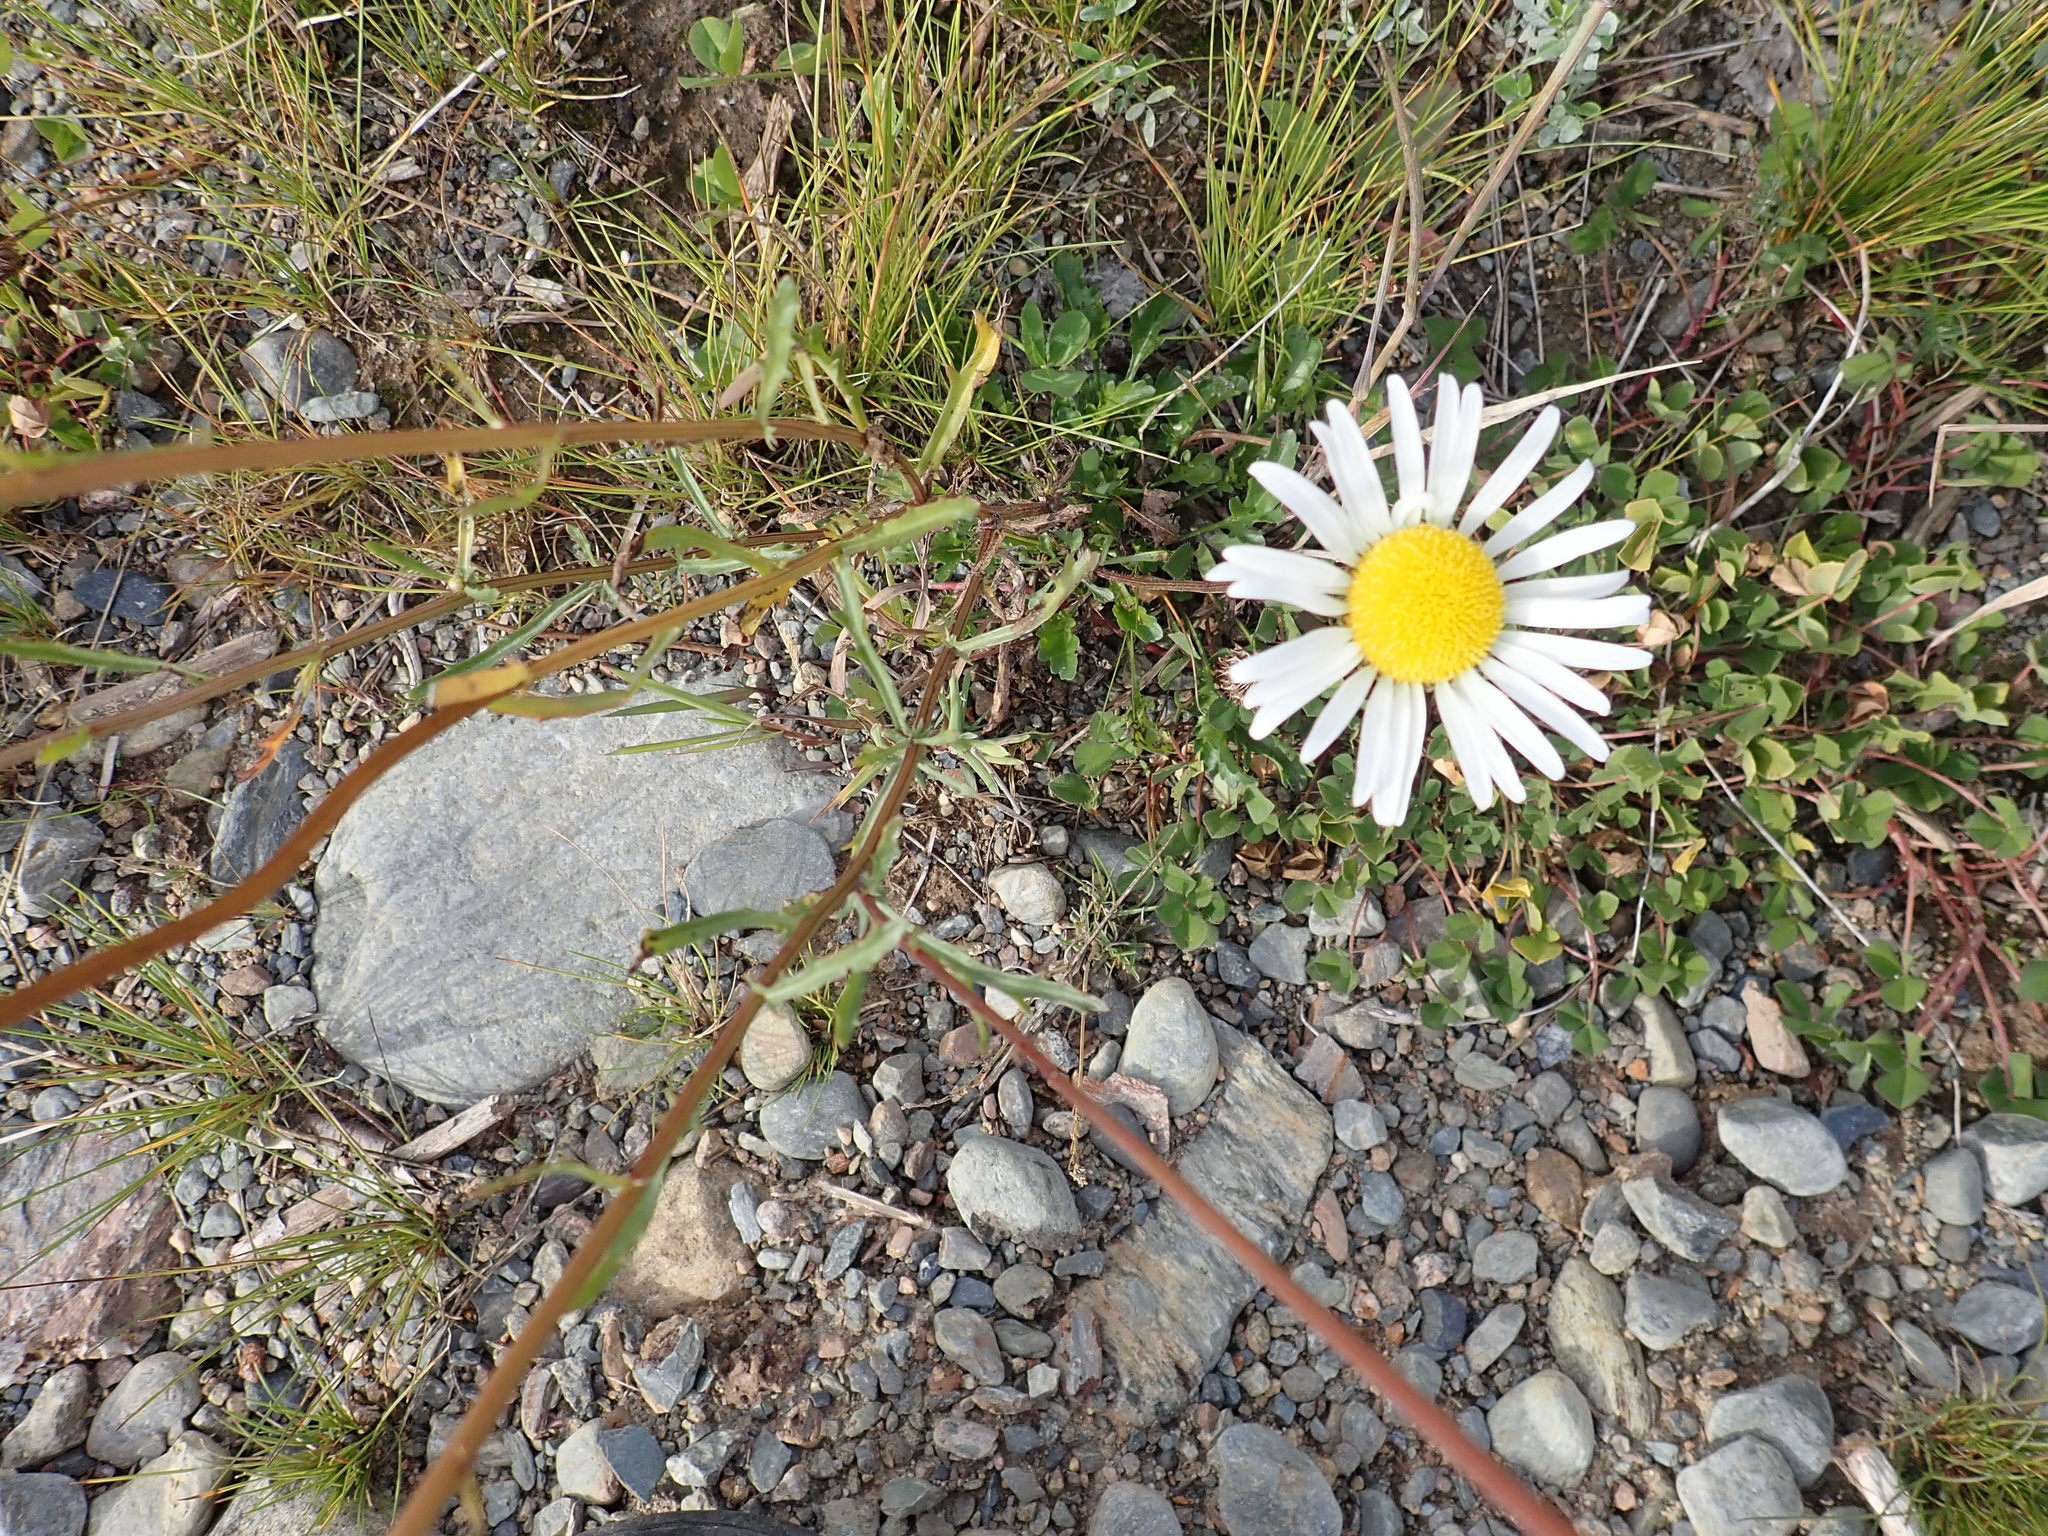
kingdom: Plantae
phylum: Tracheophyta
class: Magnoliopsida
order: Asterales
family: Asteraceae
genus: Leucanthemum
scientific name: Leucanthemum vulgare
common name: Oxeye daisy
